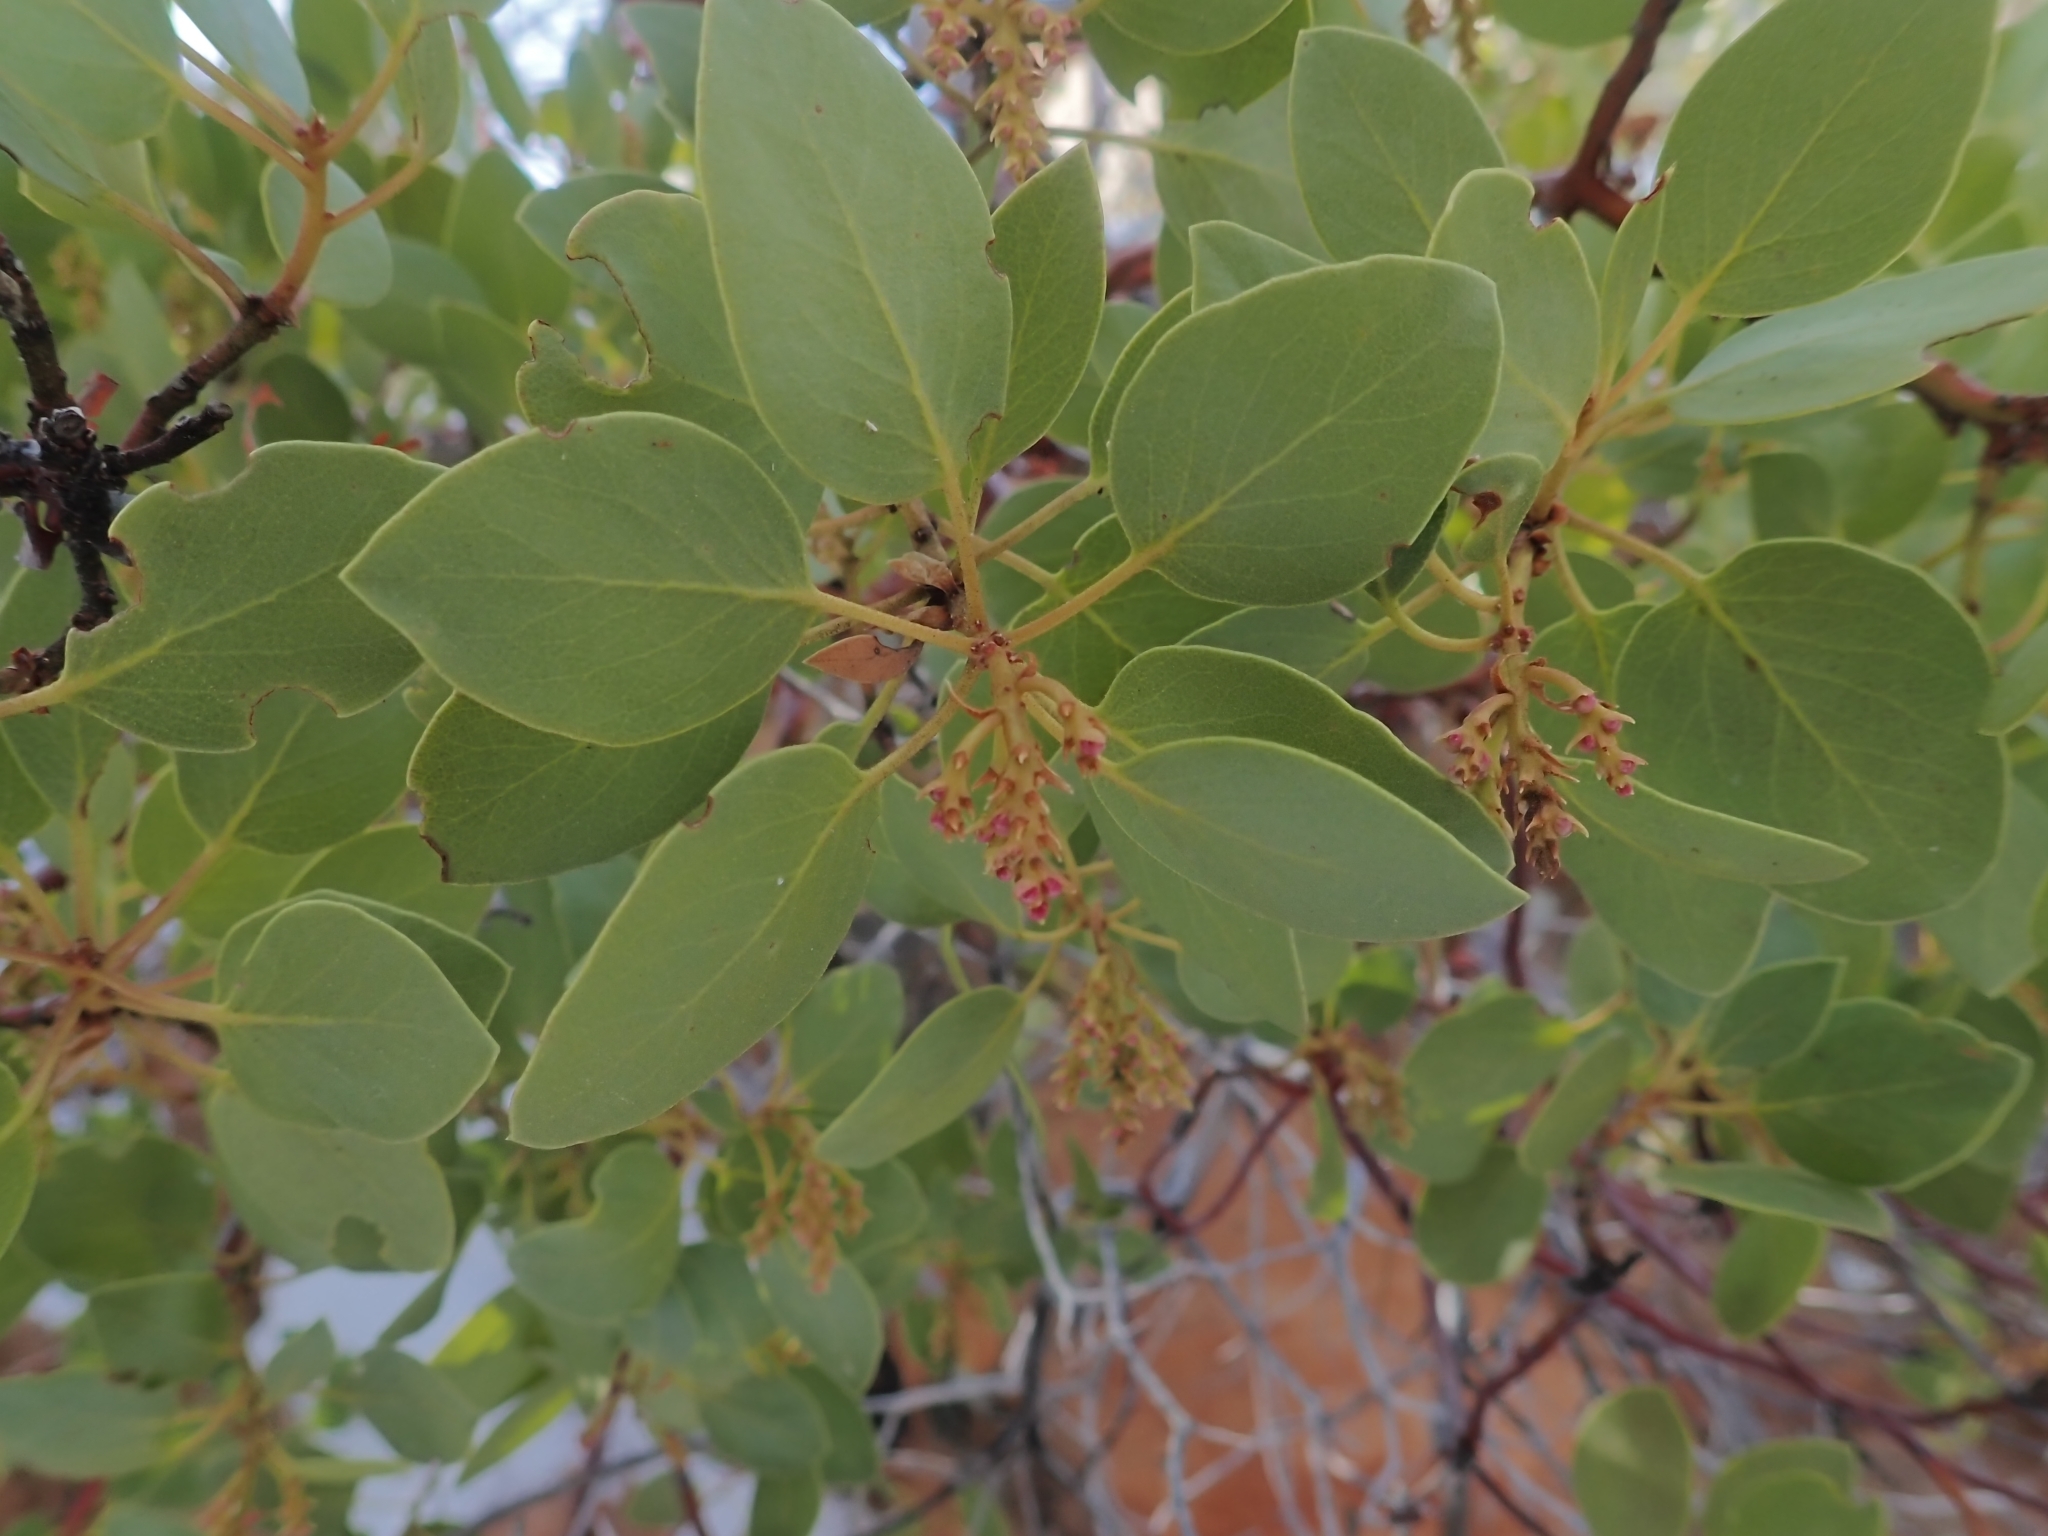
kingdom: Plantae
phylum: Tracheophyta
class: Magnoliopsida
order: Ericales
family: Ericaceae
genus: Arctostaphylos
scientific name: Arctostaphylos patula
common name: Green-leaf manzanita
